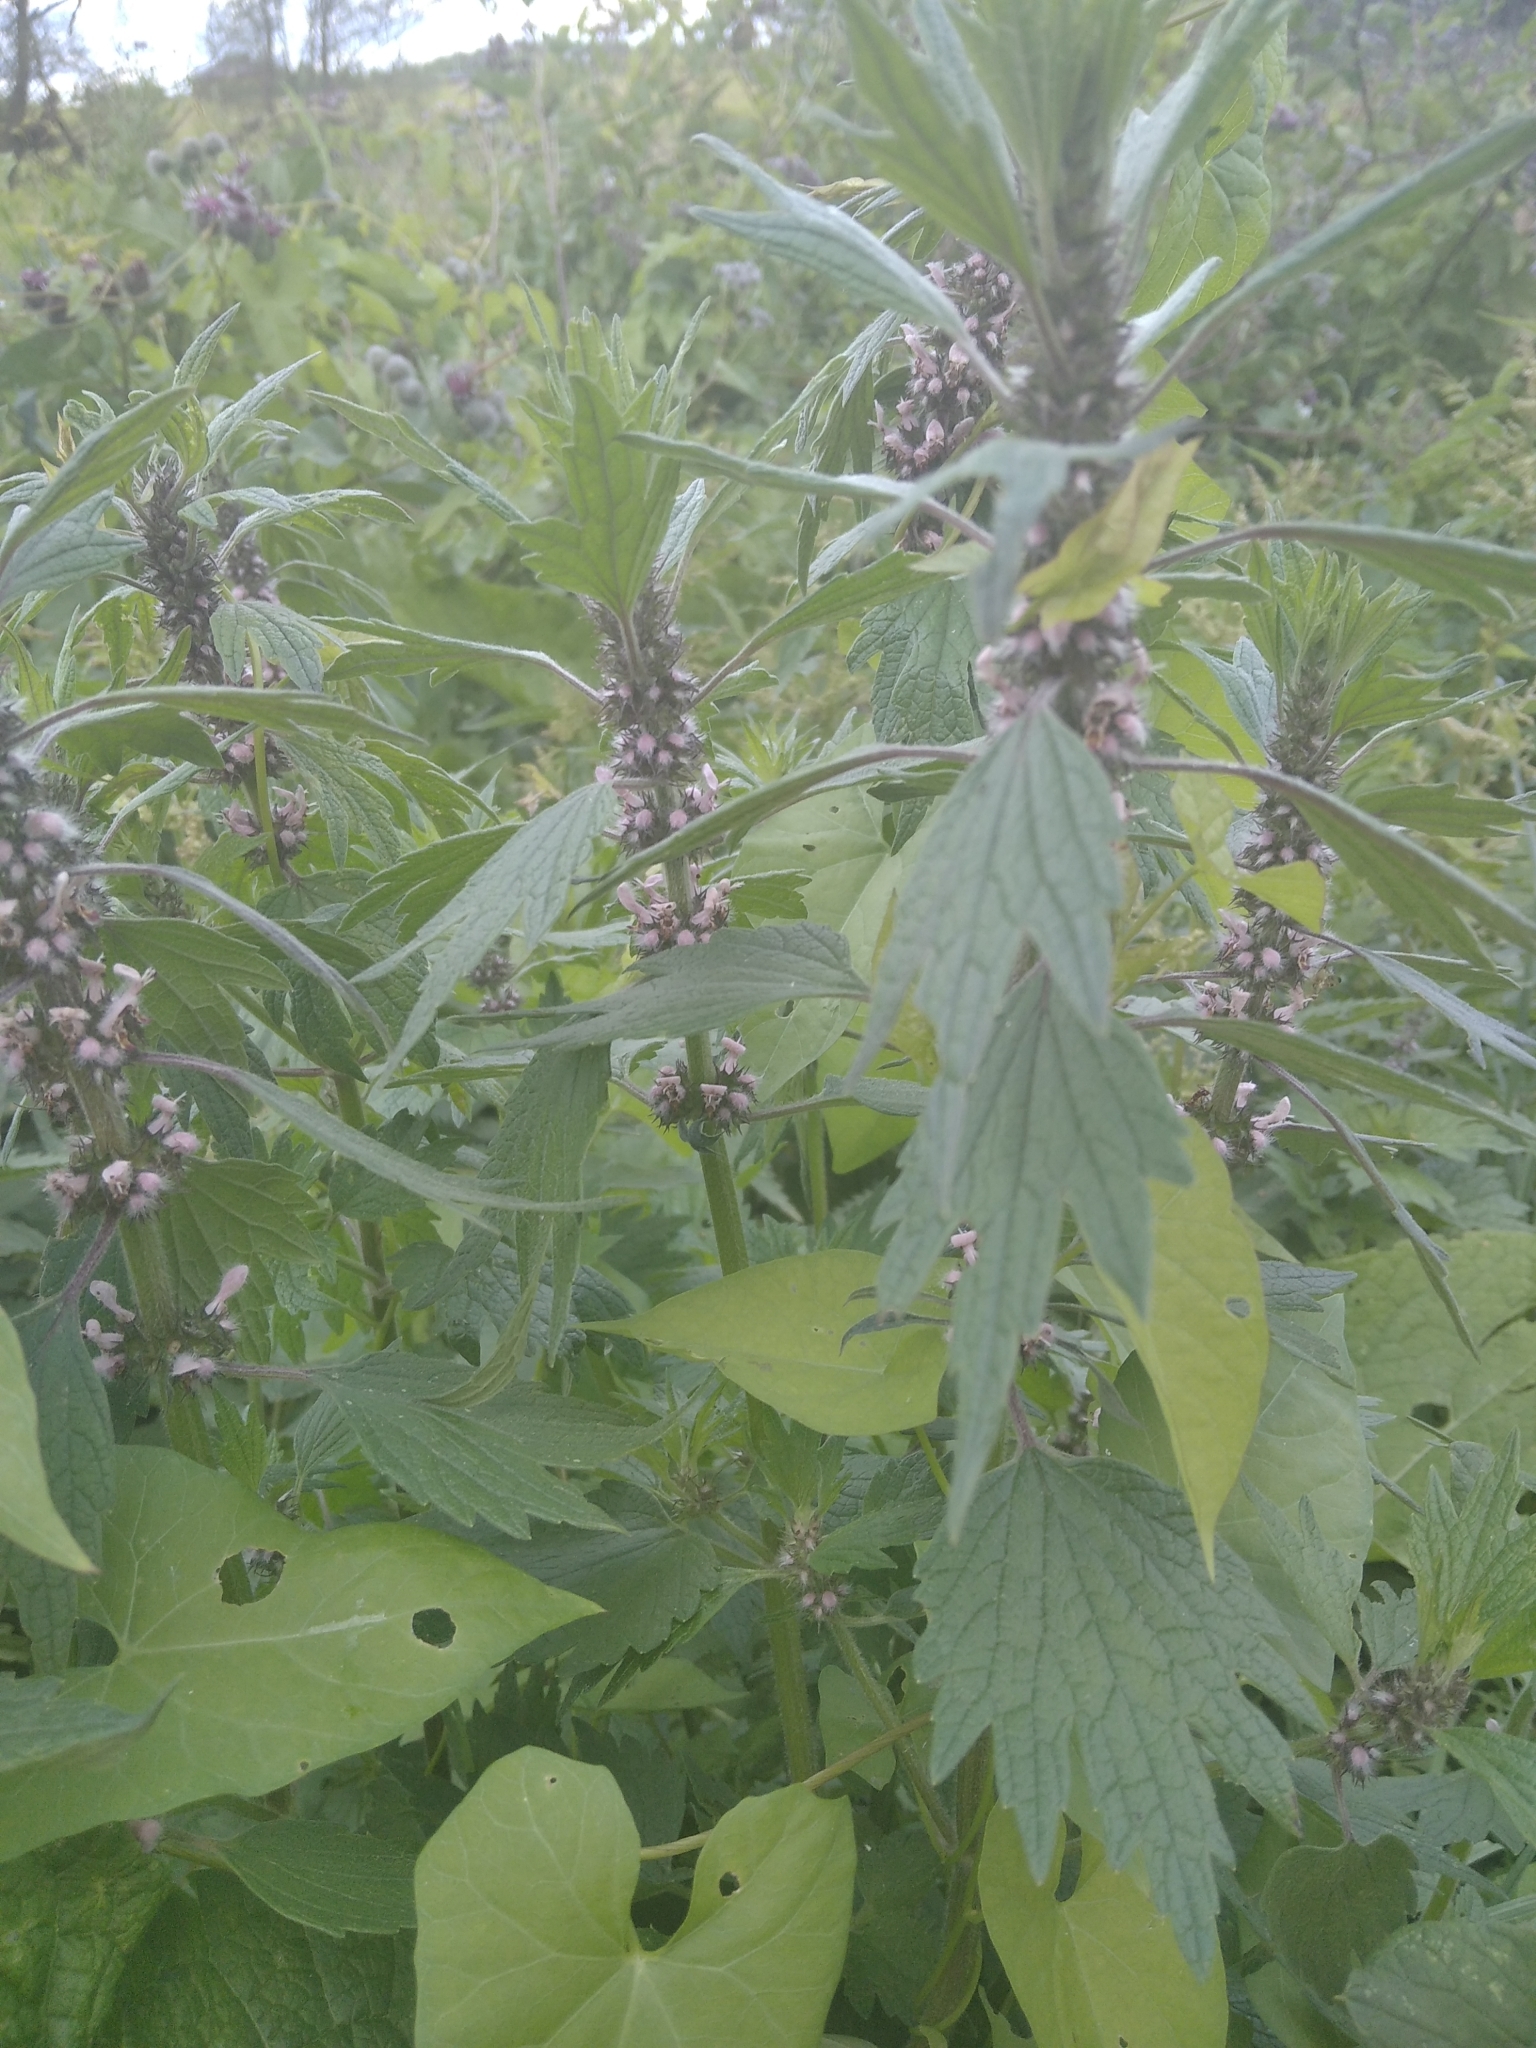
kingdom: Plantae
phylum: Tracheophyta
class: Magnoliopsida
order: Lamiales
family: Lamiaceae
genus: Leonurus
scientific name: Leonurus quinquelobatus
